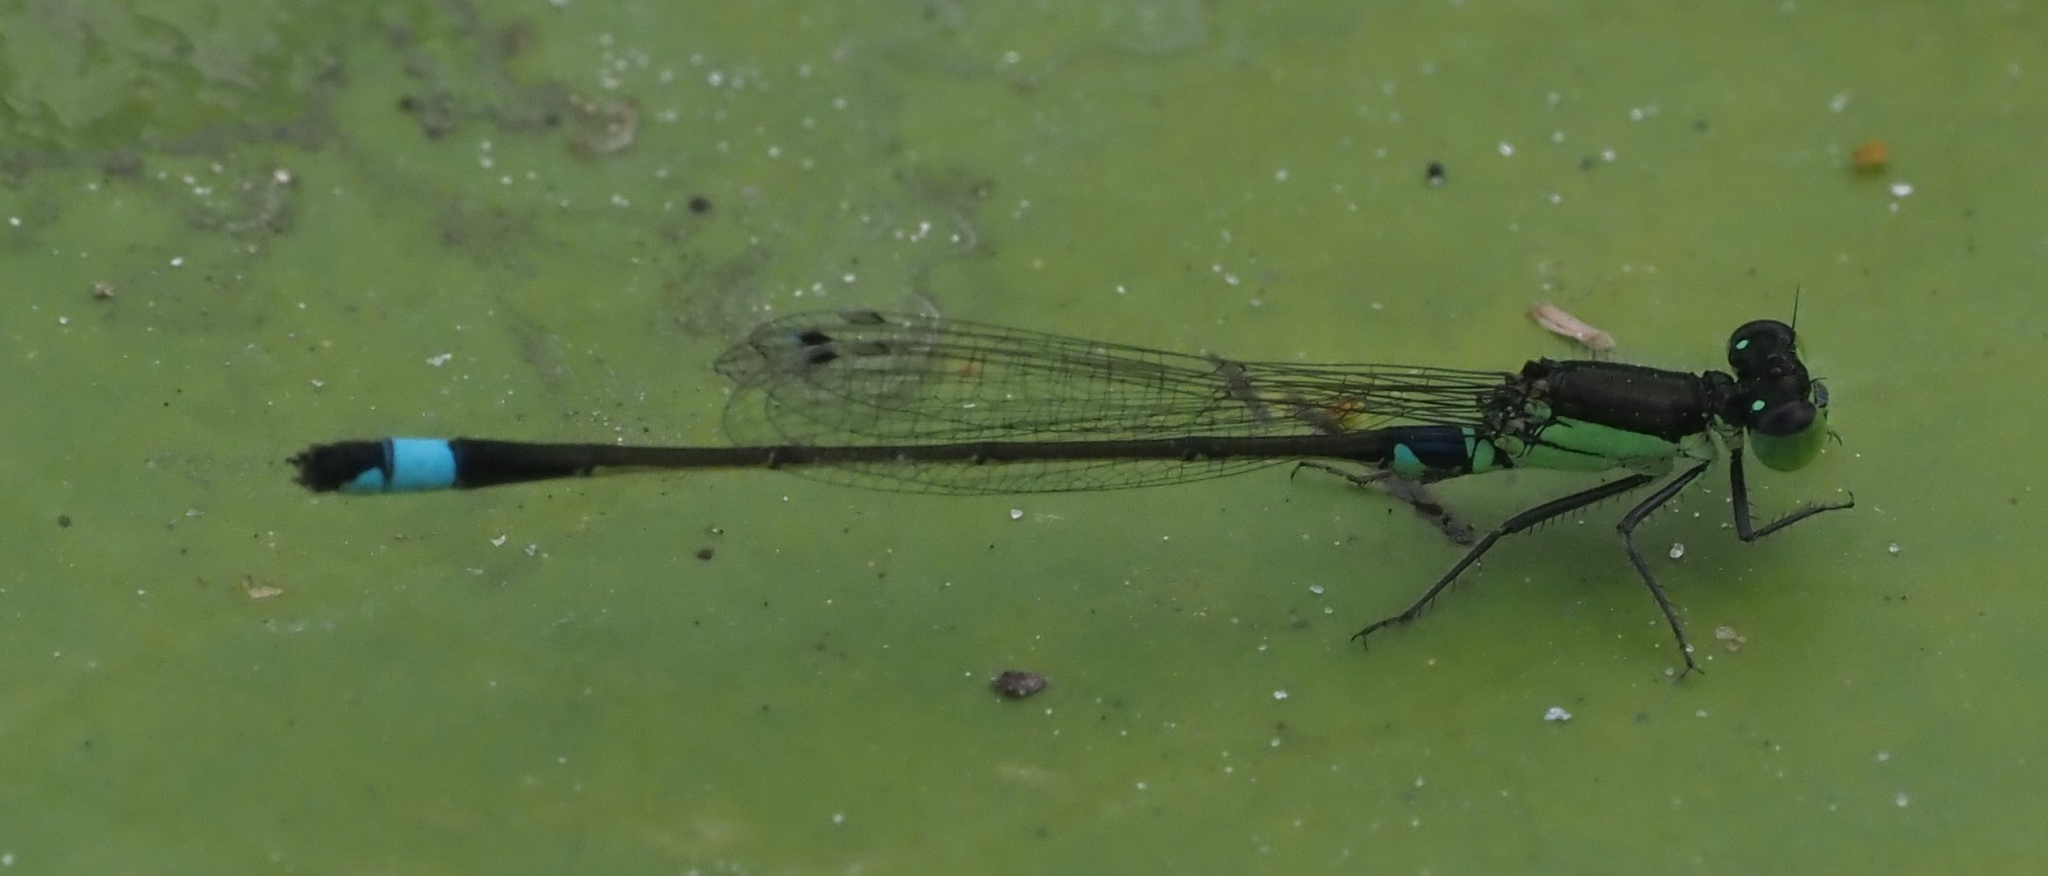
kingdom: Animalia
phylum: Arthropoda
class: Insecta
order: Odonata
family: Coenagrionidae
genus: Ischnura
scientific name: Ischnura senegalensis
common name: Tropical bluetail
